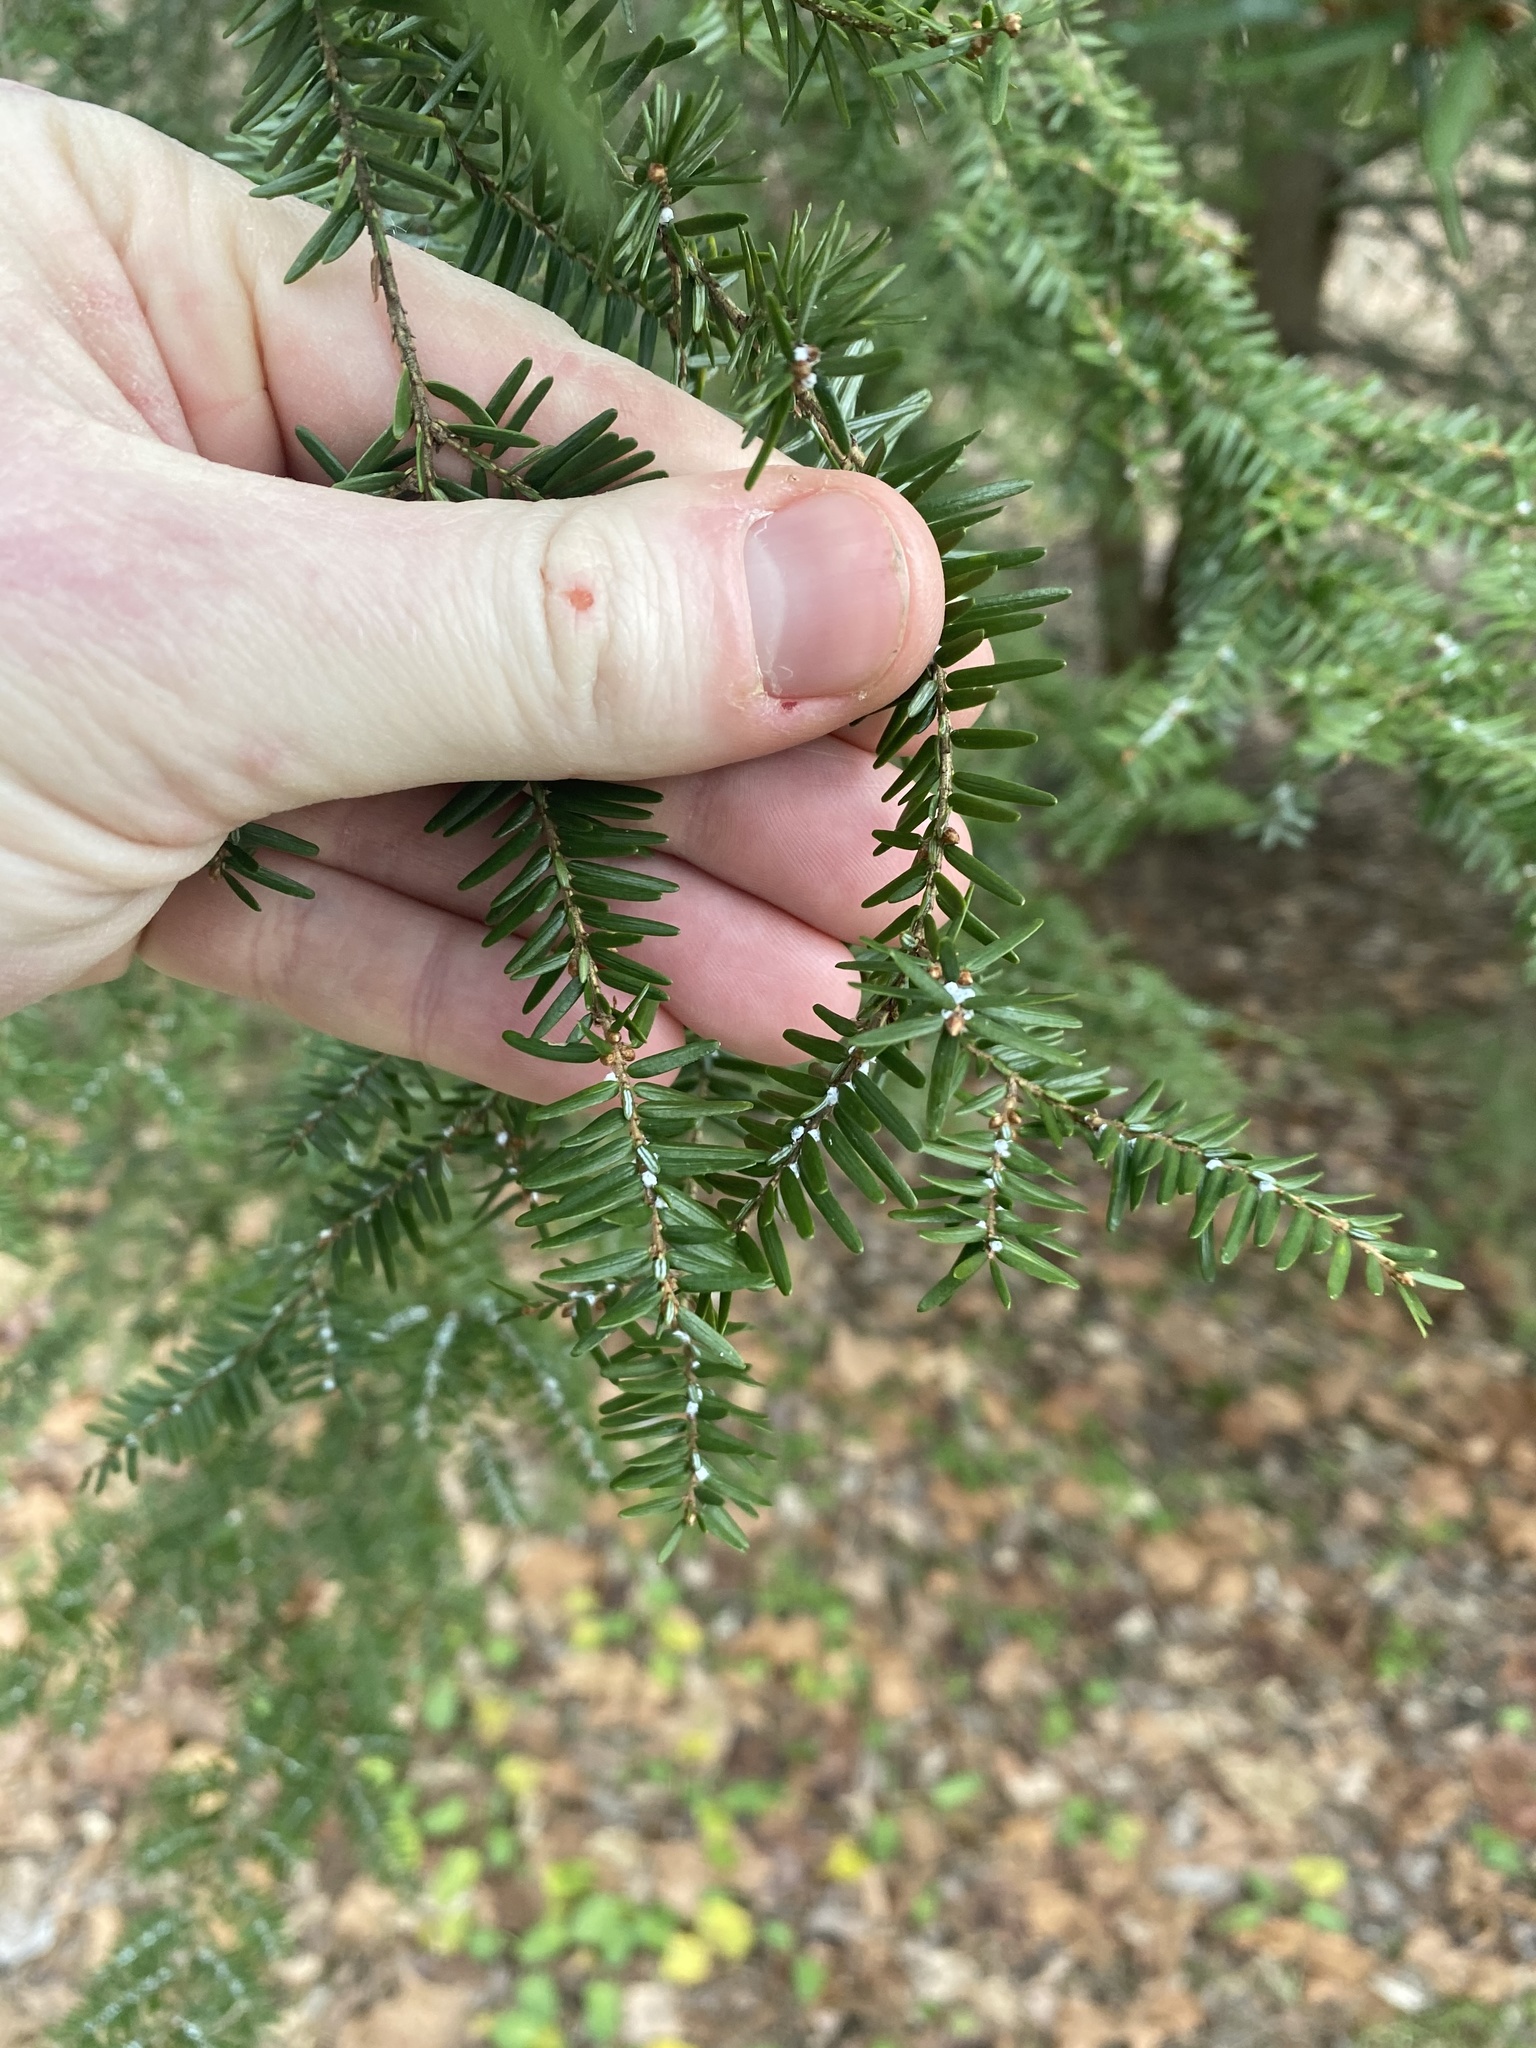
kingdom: Animalia
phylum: Arthropoda
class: Insecta
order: Hemiptera
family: Adelgidae
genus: Adelges
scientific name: Adelges tsugae
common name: Hemlock woolly adelgid
